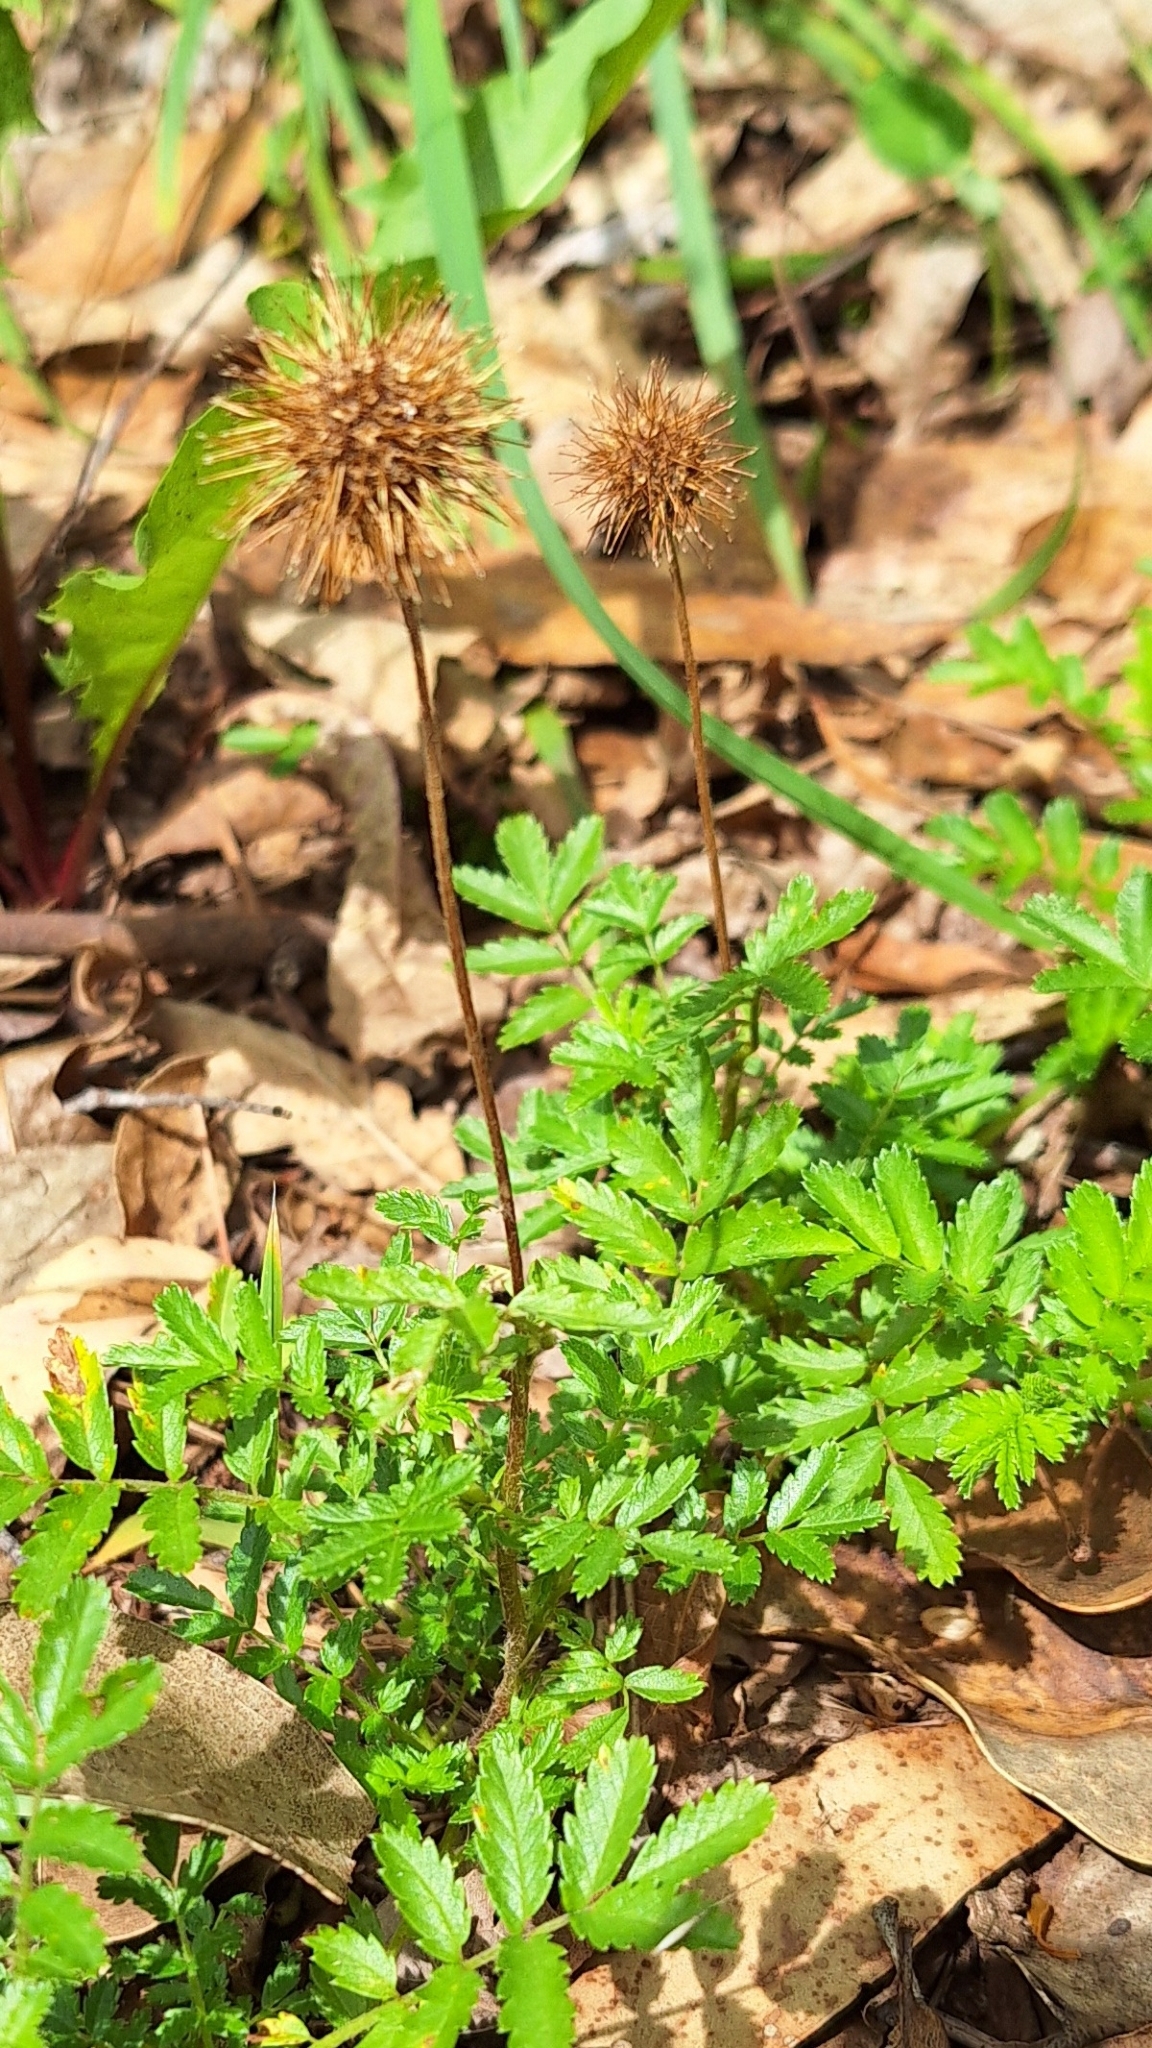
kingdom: Plantae
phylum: Tracheophyta
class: Magnoliopsida
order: Rosales
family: Rosaceae
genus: Acaena
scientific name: Acaena novae-zelandiae
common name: Pirri-pirri-bur
